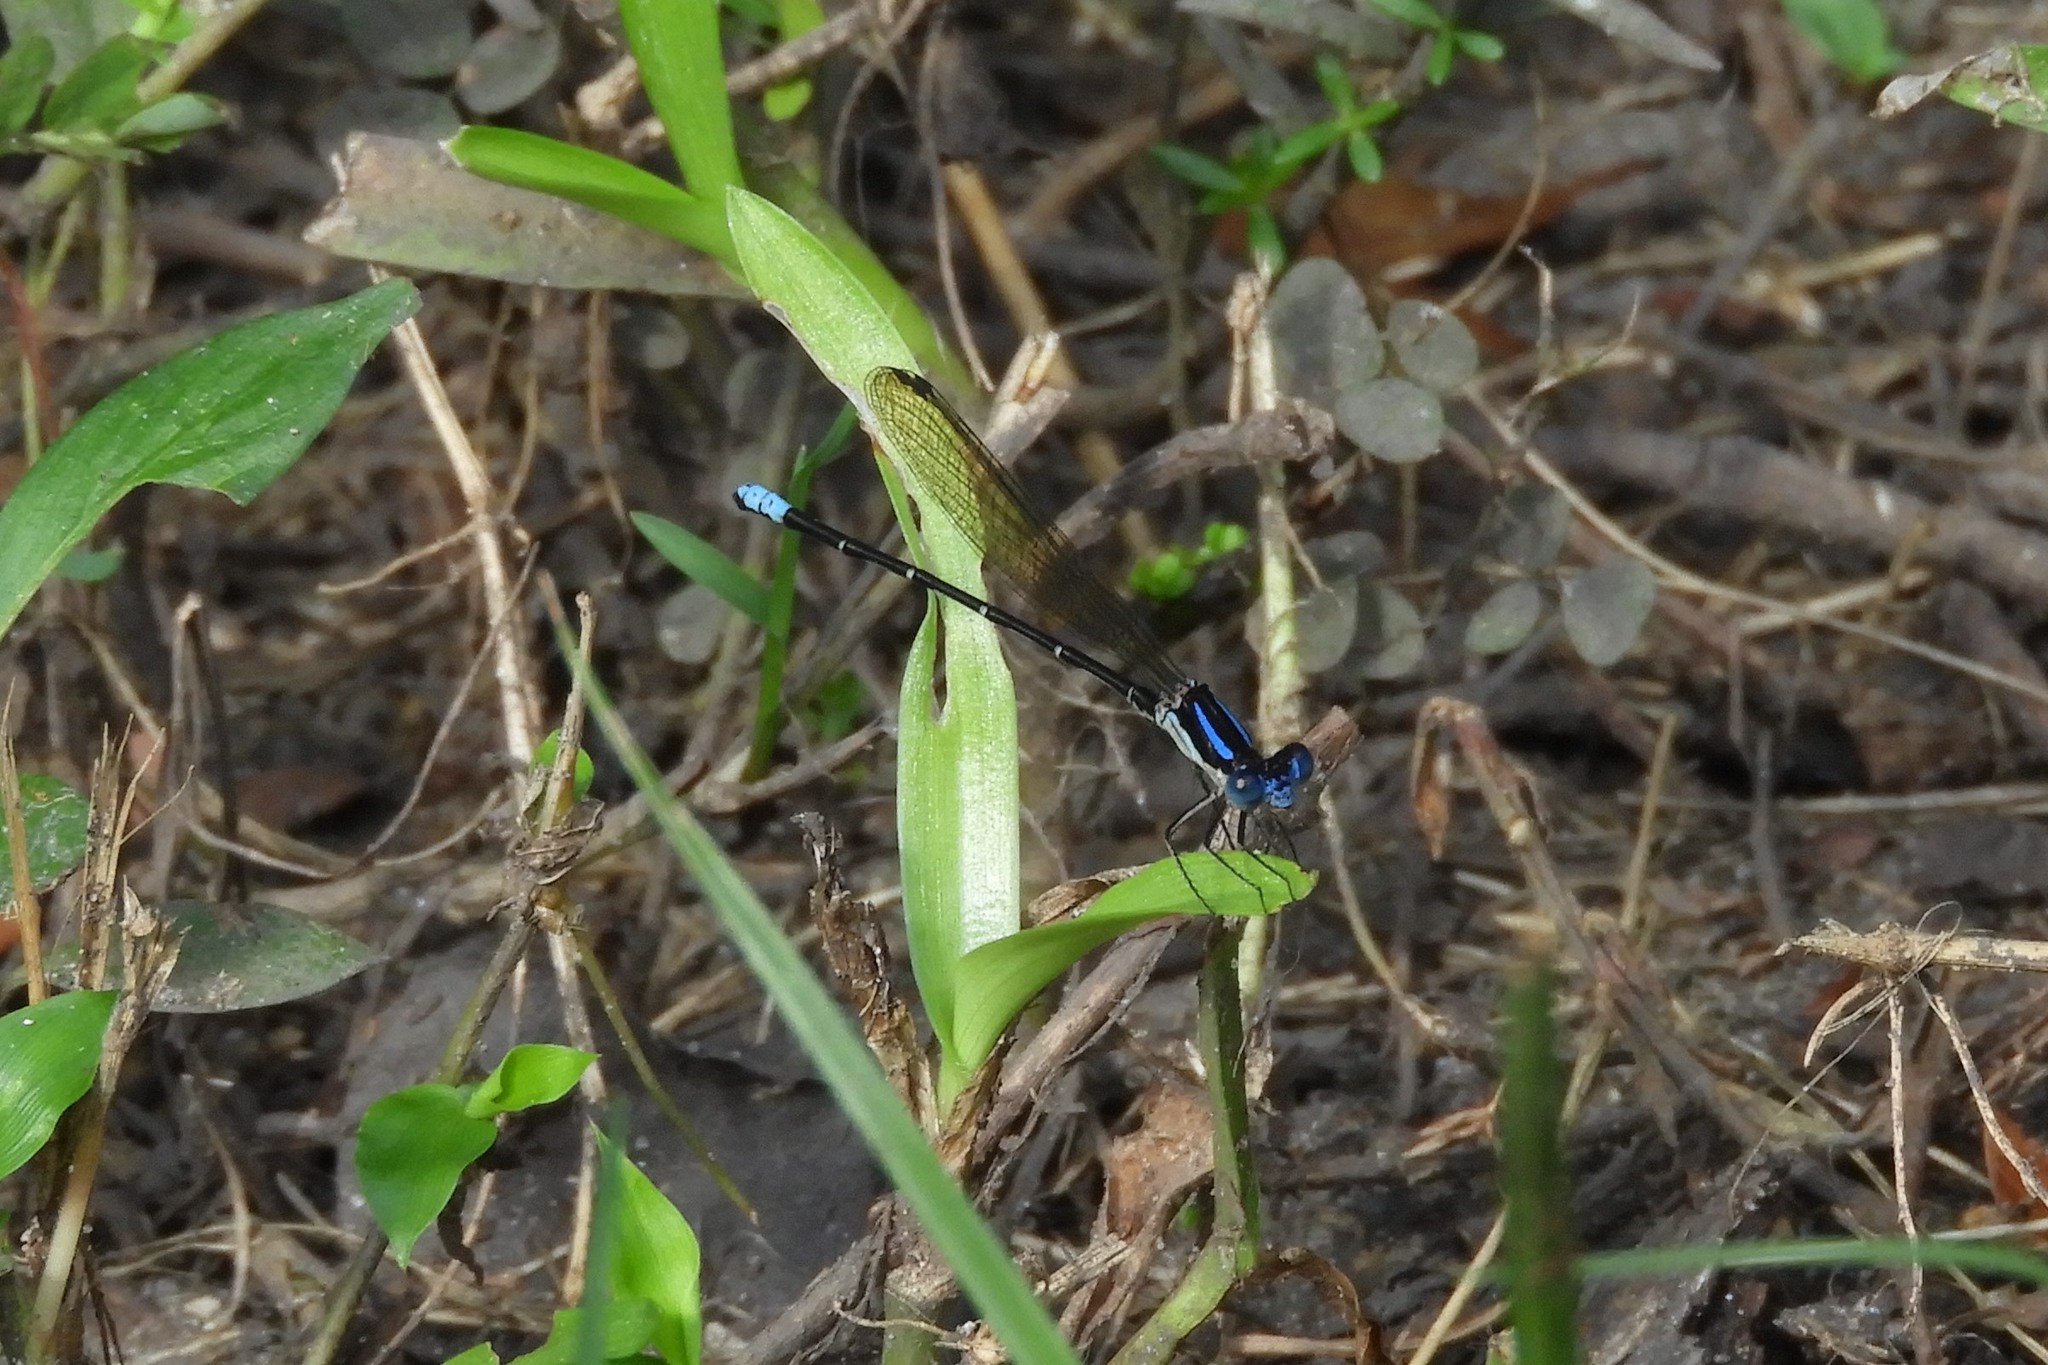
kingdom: Animalia
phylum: Arthropoda
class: Insecta
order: Odonata
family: Coenagrionidae
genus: Argia
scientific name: Argia sedula
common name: Blue-ringed dancer
